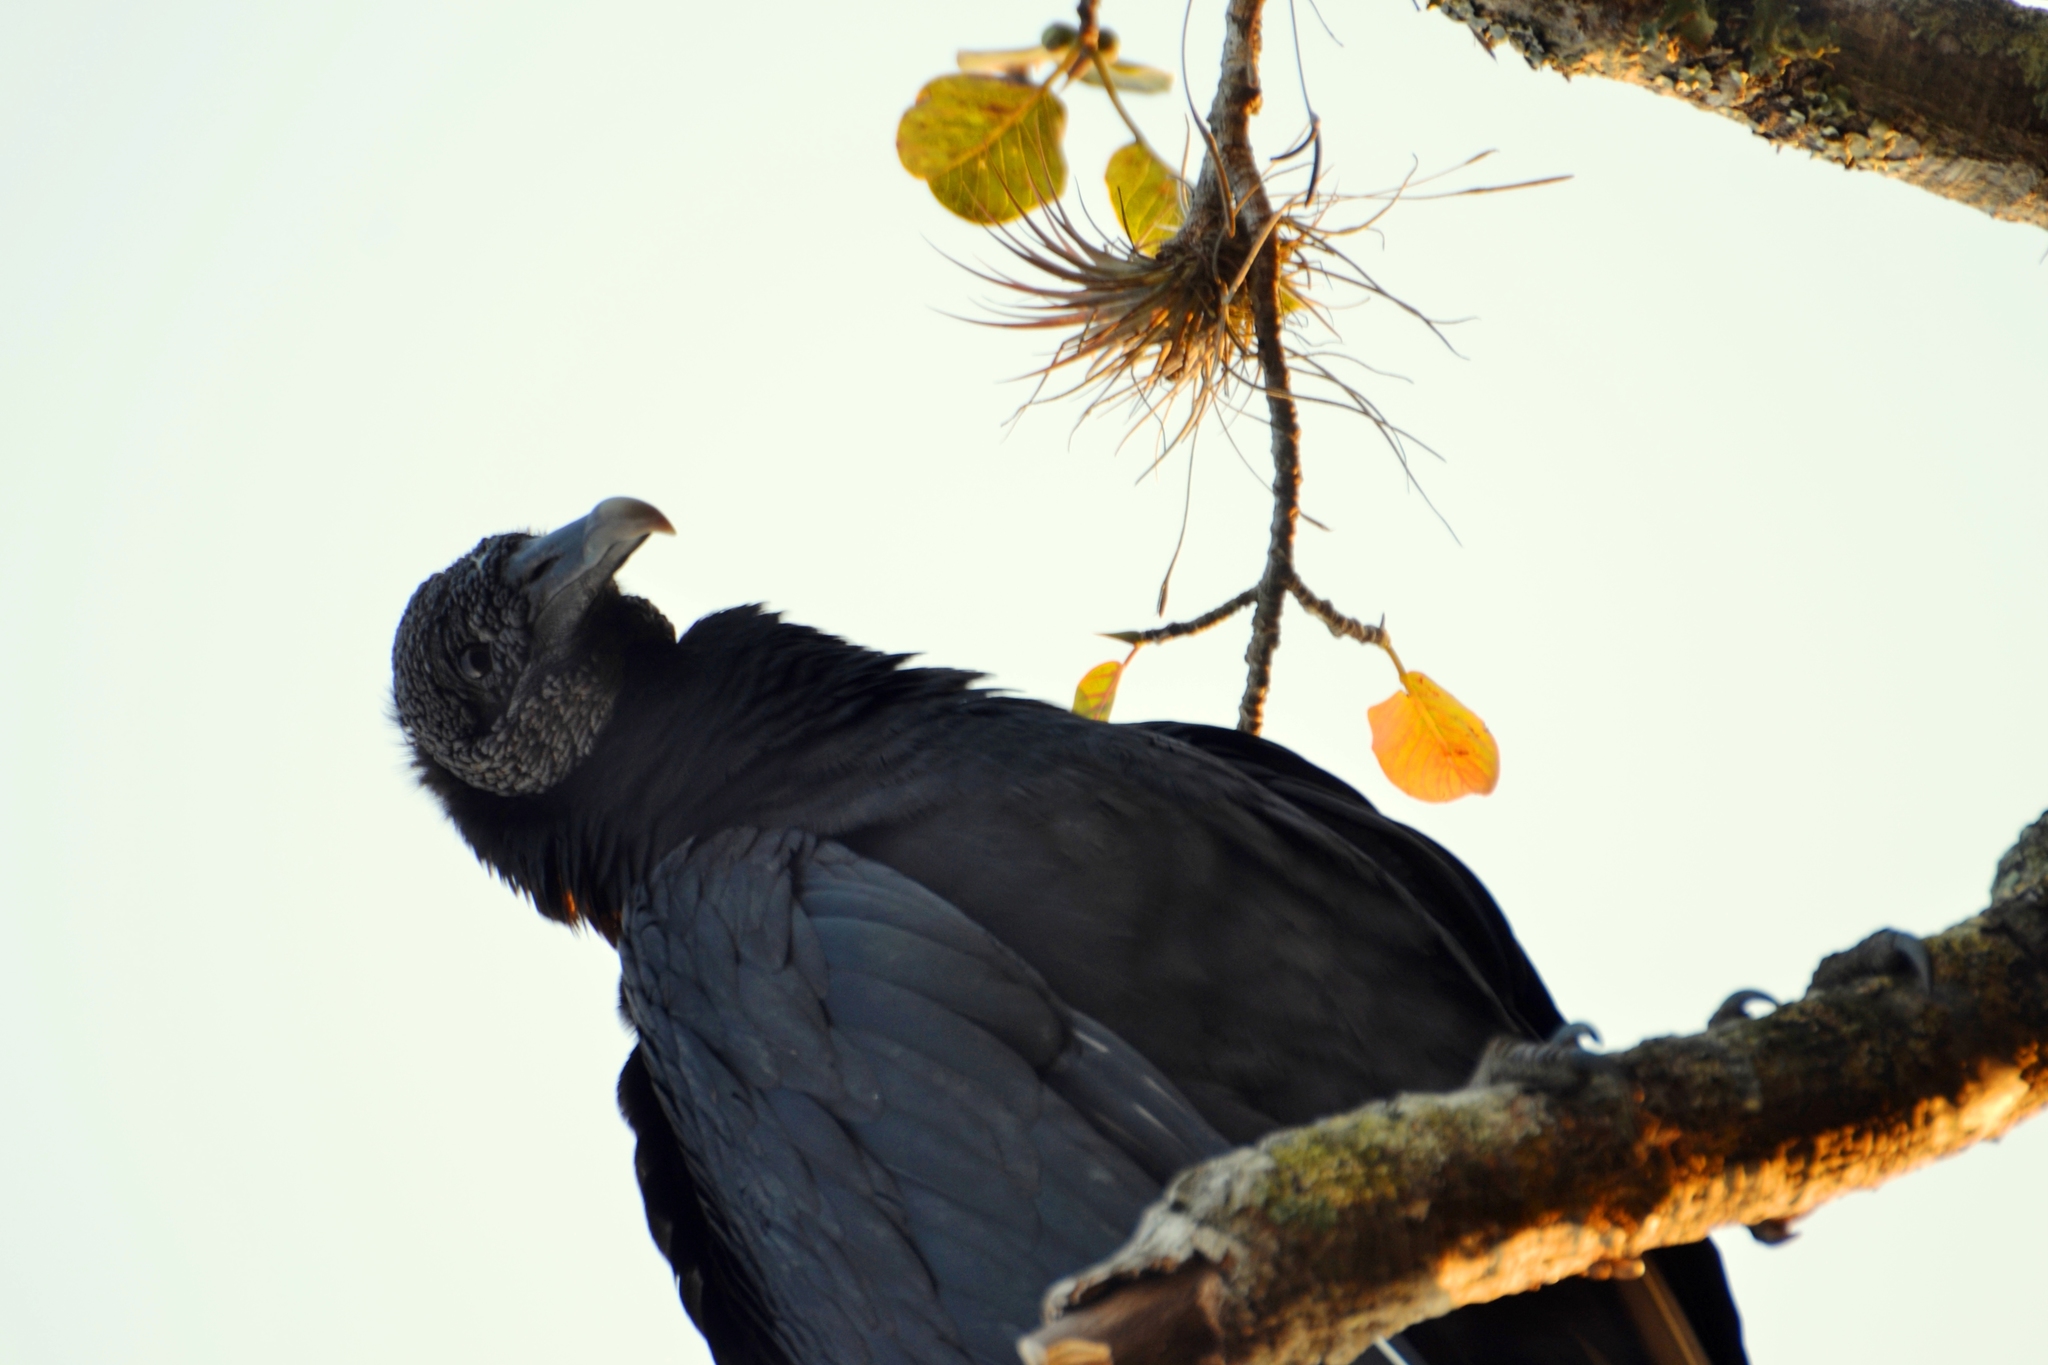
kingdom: Animalia
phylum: Chordata
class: Aves
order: Accipitriformes
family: Cathartidae
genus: Coragyps
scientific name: Coragyps atratus
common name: Black vulture
